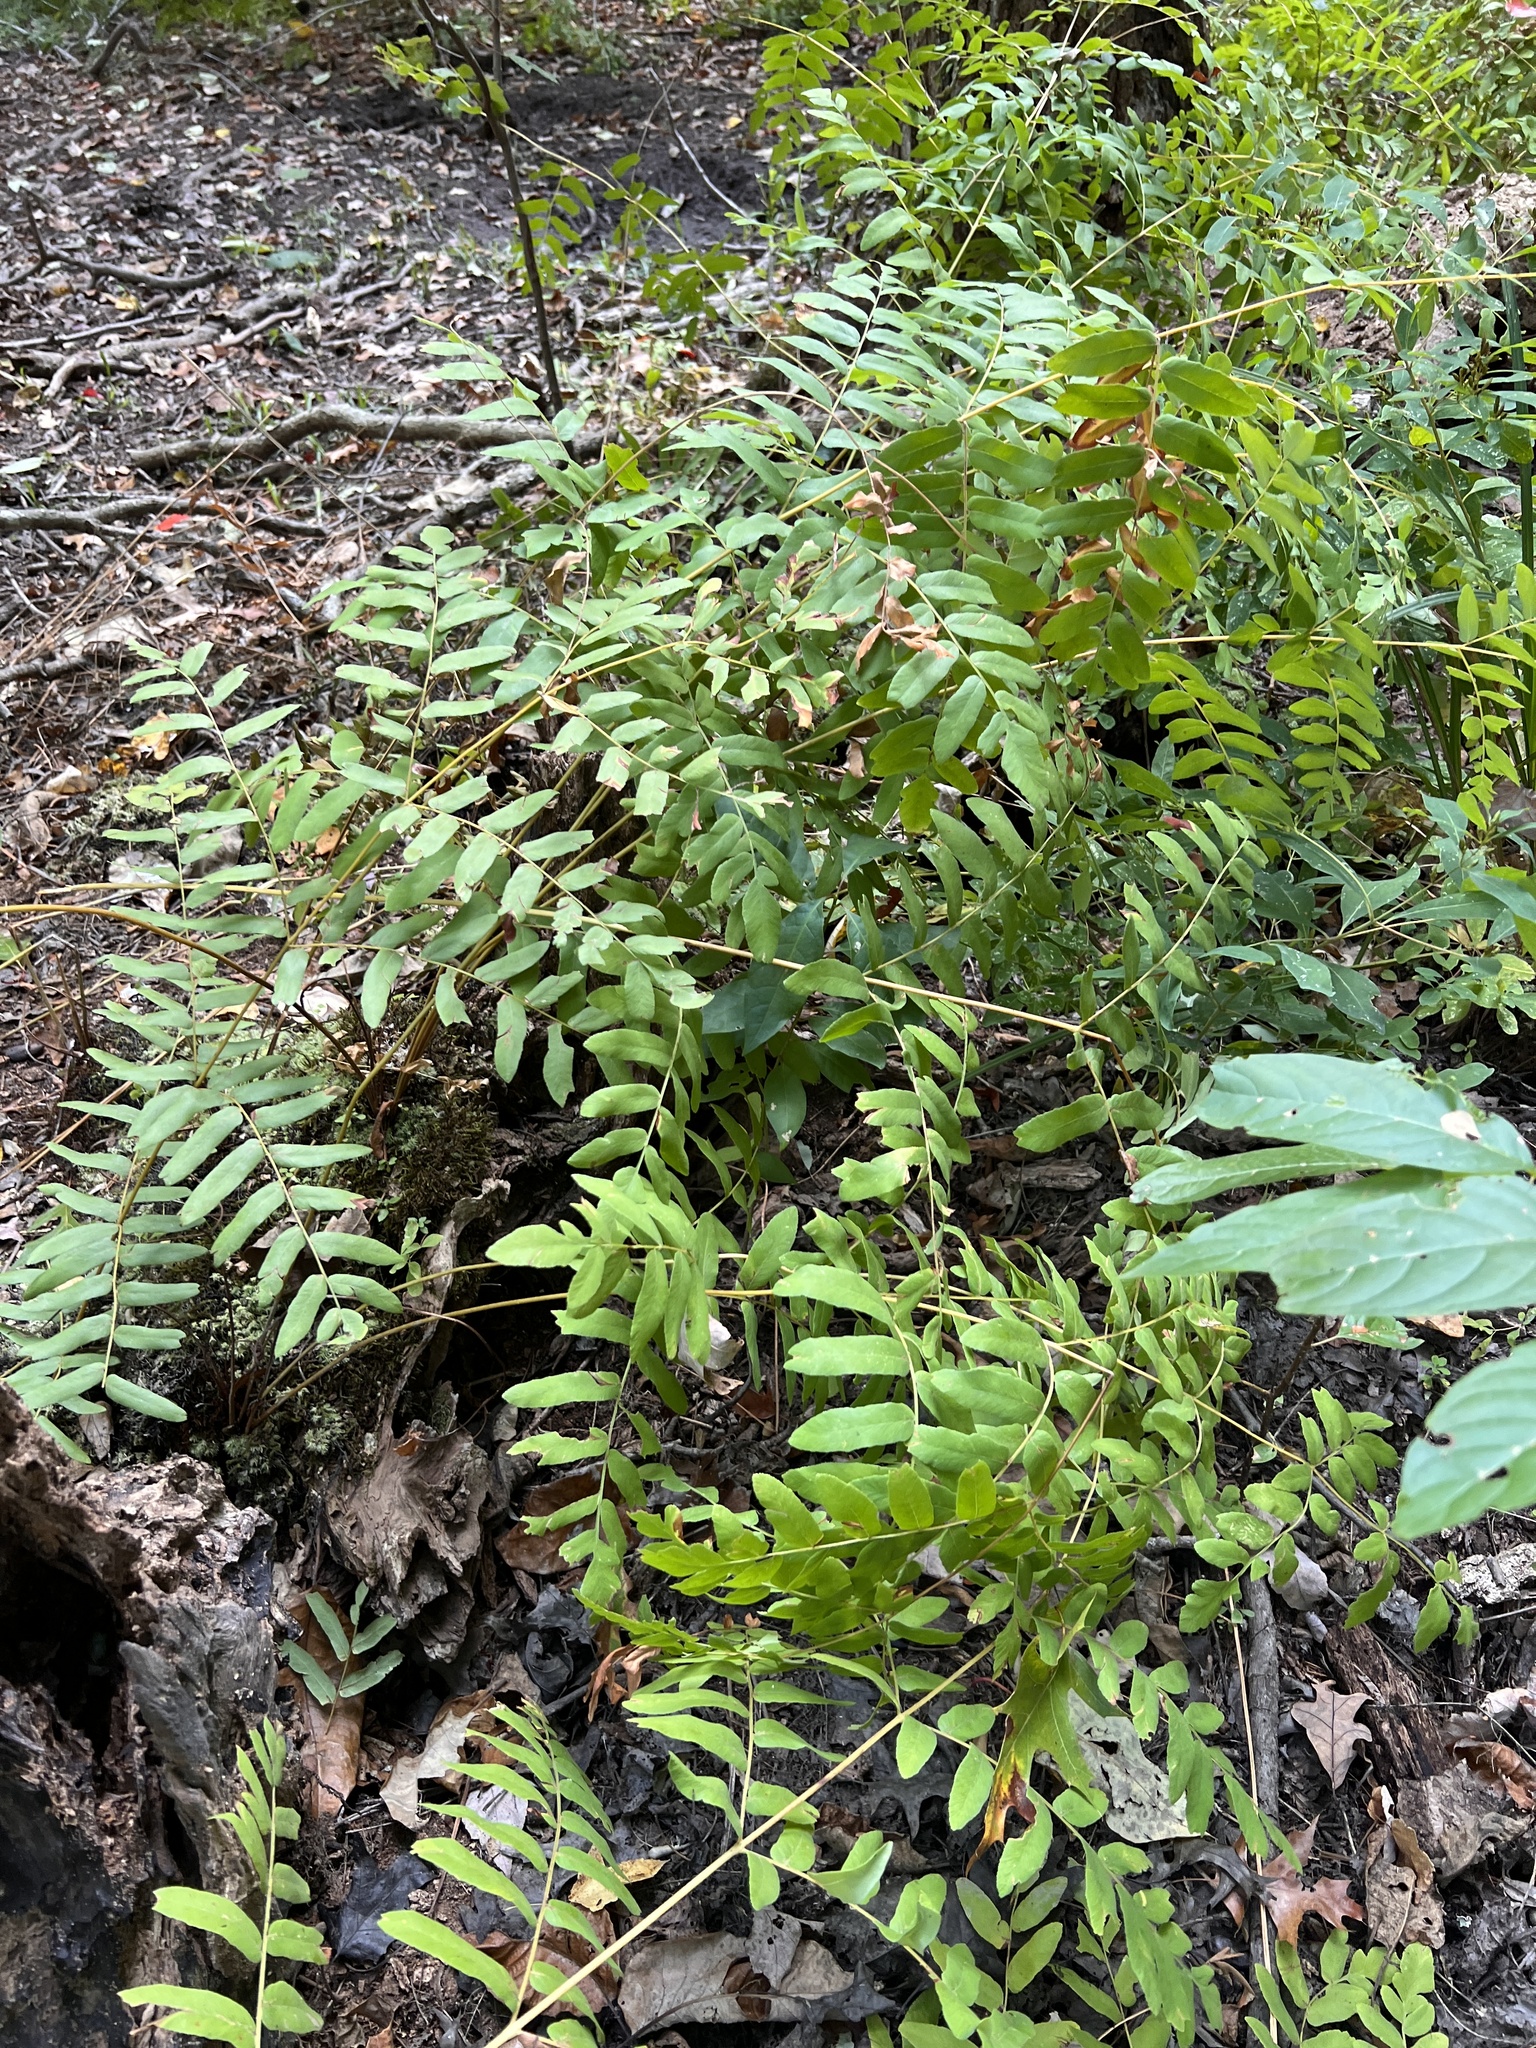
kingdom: Plantae
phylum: Tracheophyta
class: Polypodiopsida
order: Osmundales
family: Osmundaceae
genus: Osmunda
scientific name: Osmunda spectabilis
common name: American royal fern
